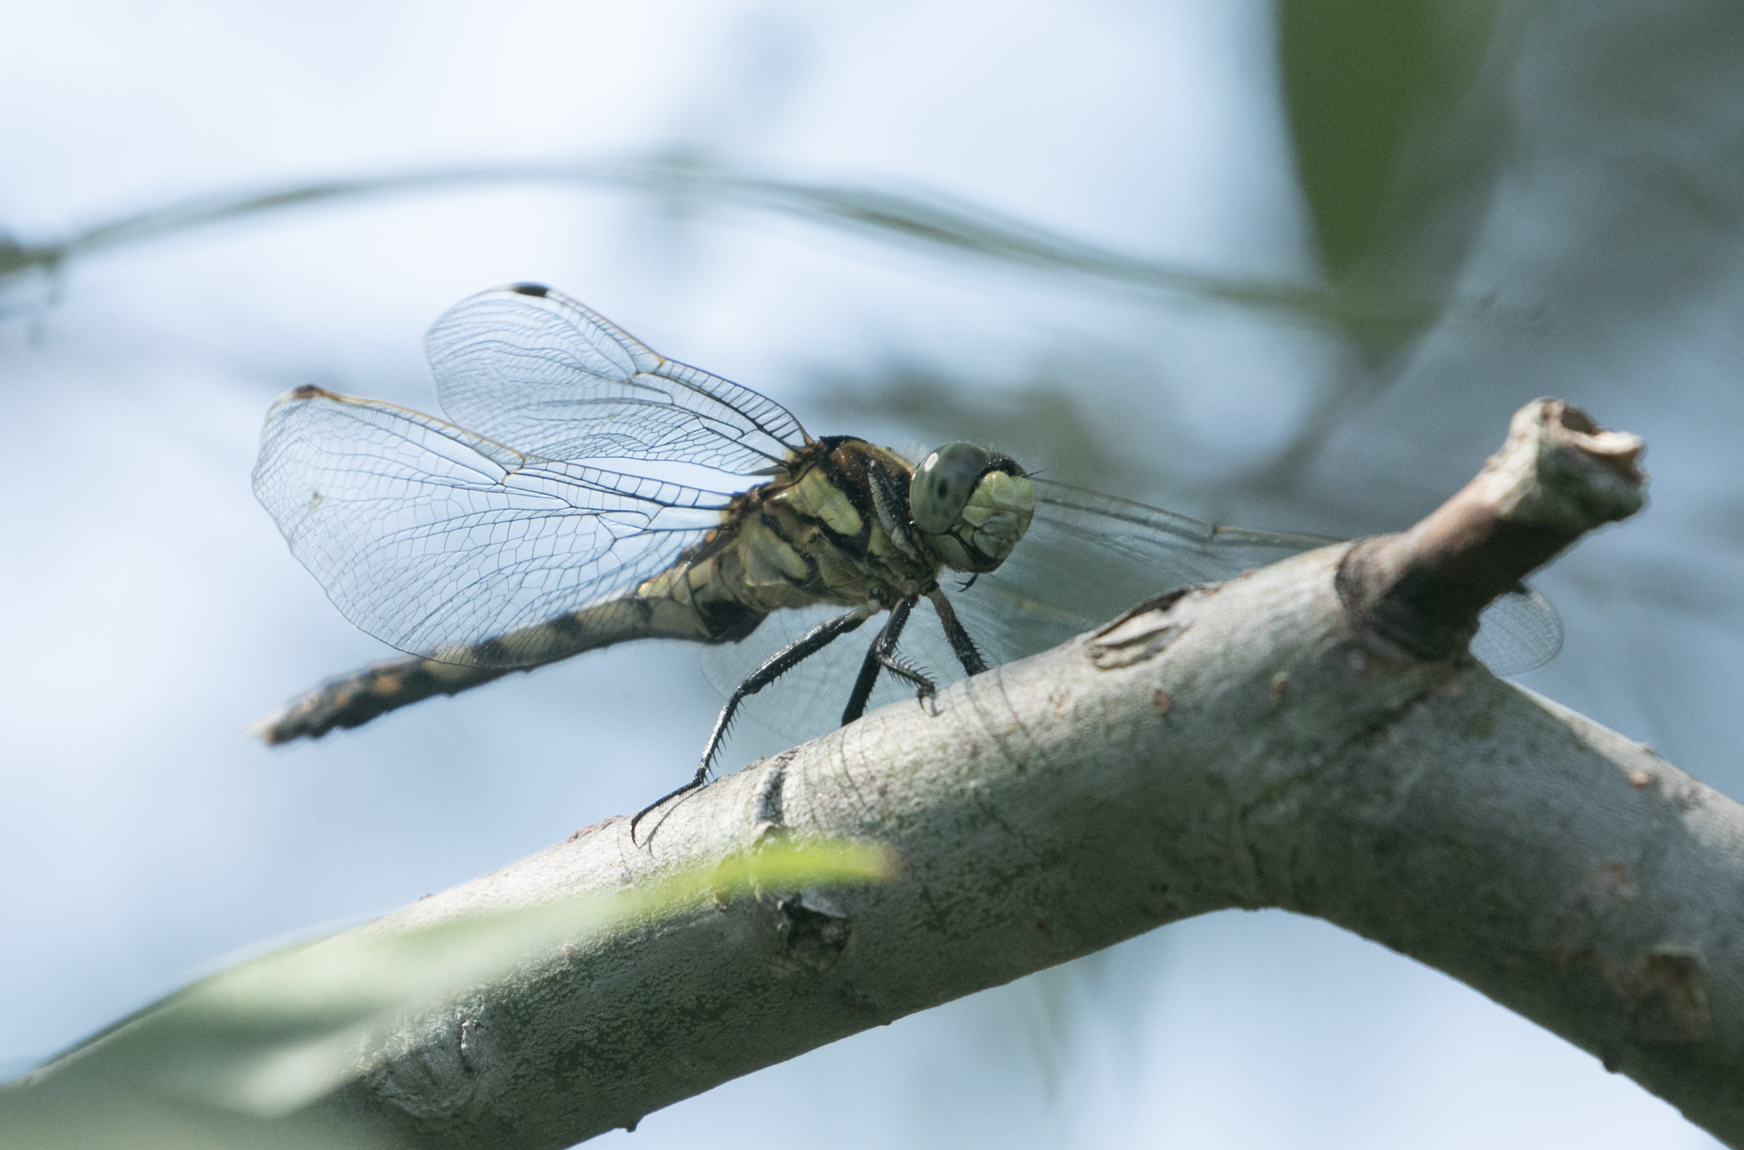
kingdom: Animalia
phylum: Arthropoda
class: Insecta
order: Odonata
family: Libellulidae
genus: Orthetrum
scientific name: Orthetrum albistylum
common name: White-tailed skimmer
